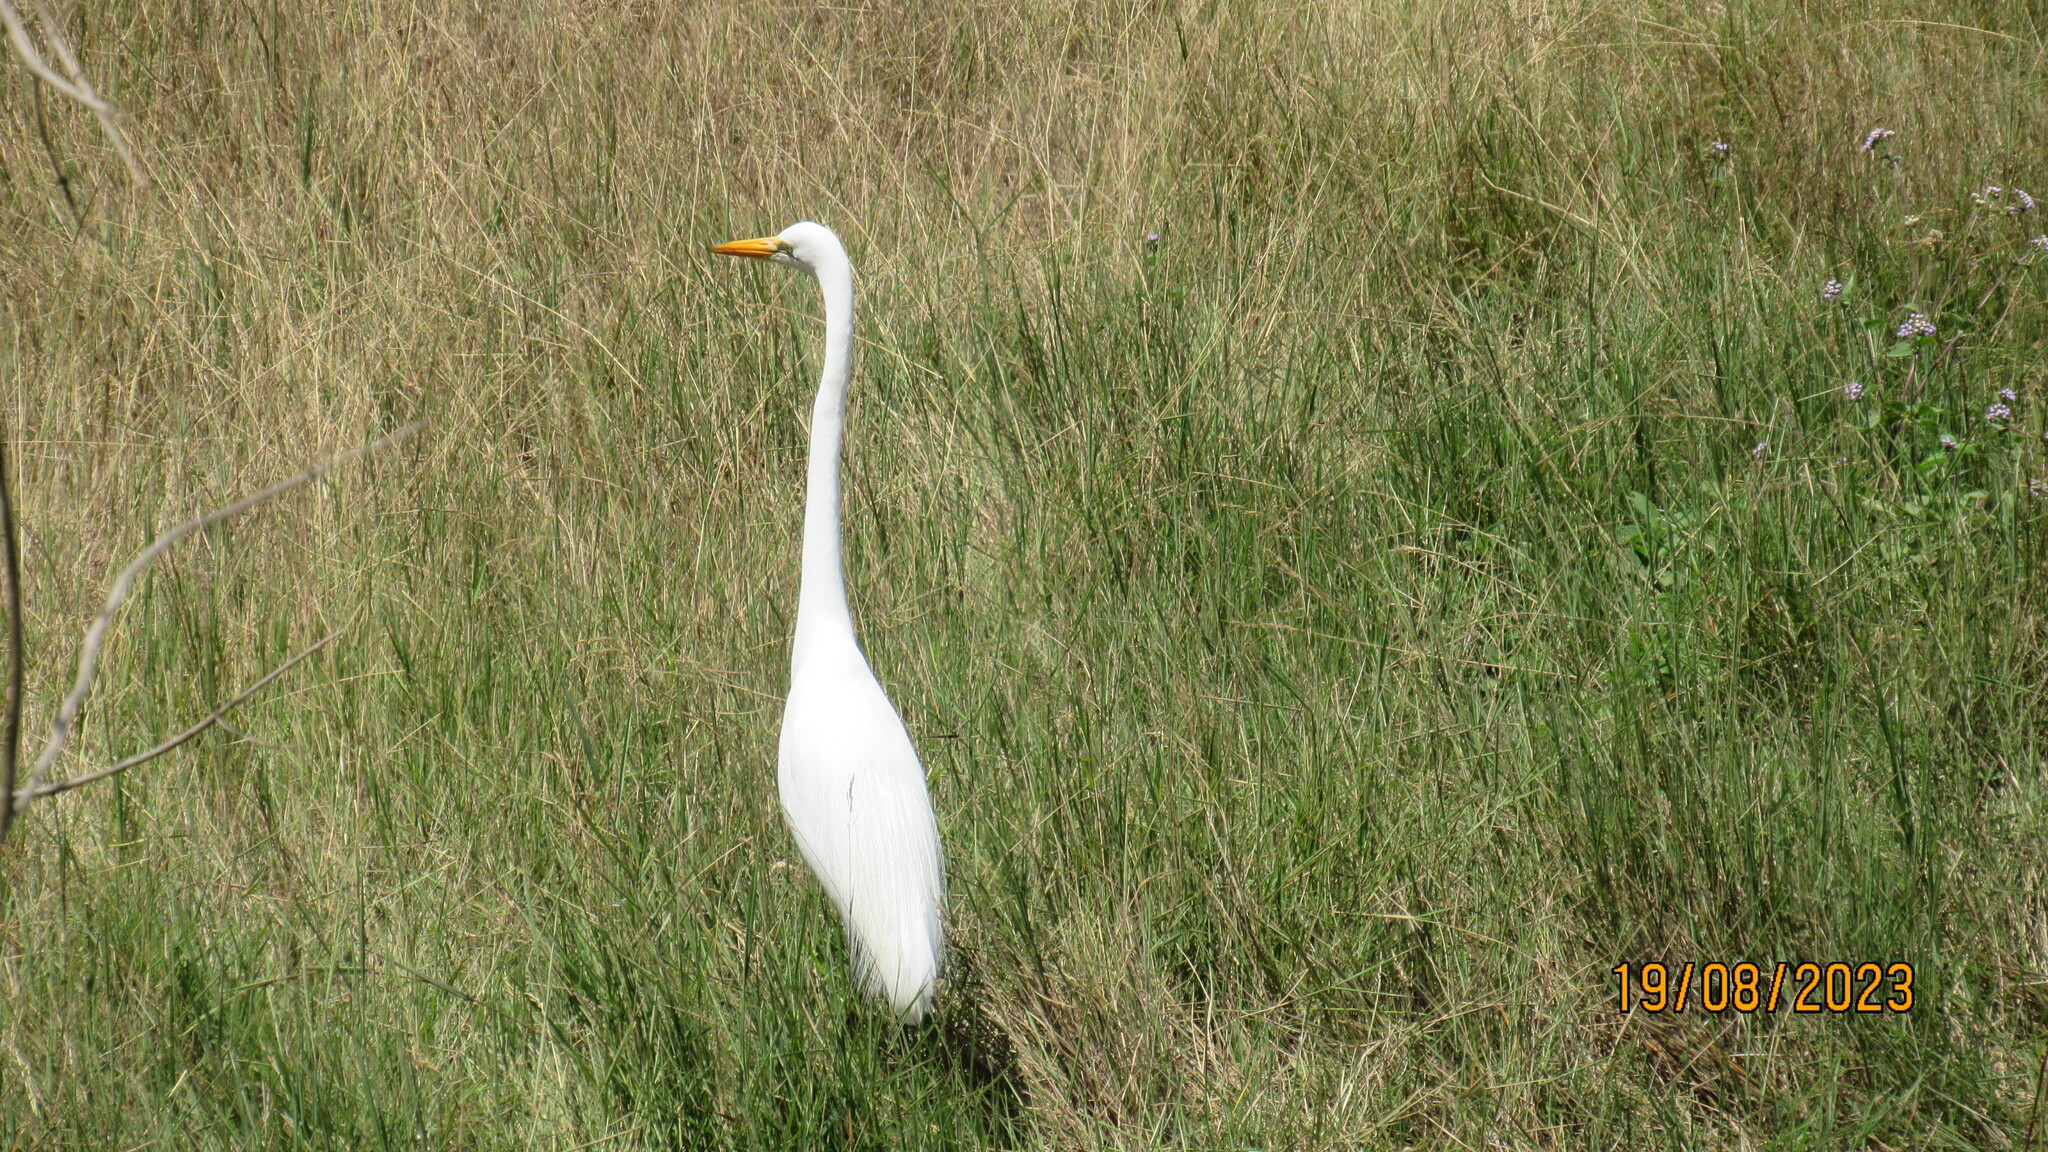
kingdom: Animalia
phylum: Chordata
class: Aves
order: Pelecaniformes
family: Ardeidae
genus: Ardea
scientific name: Ardea alba
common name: Great egret
